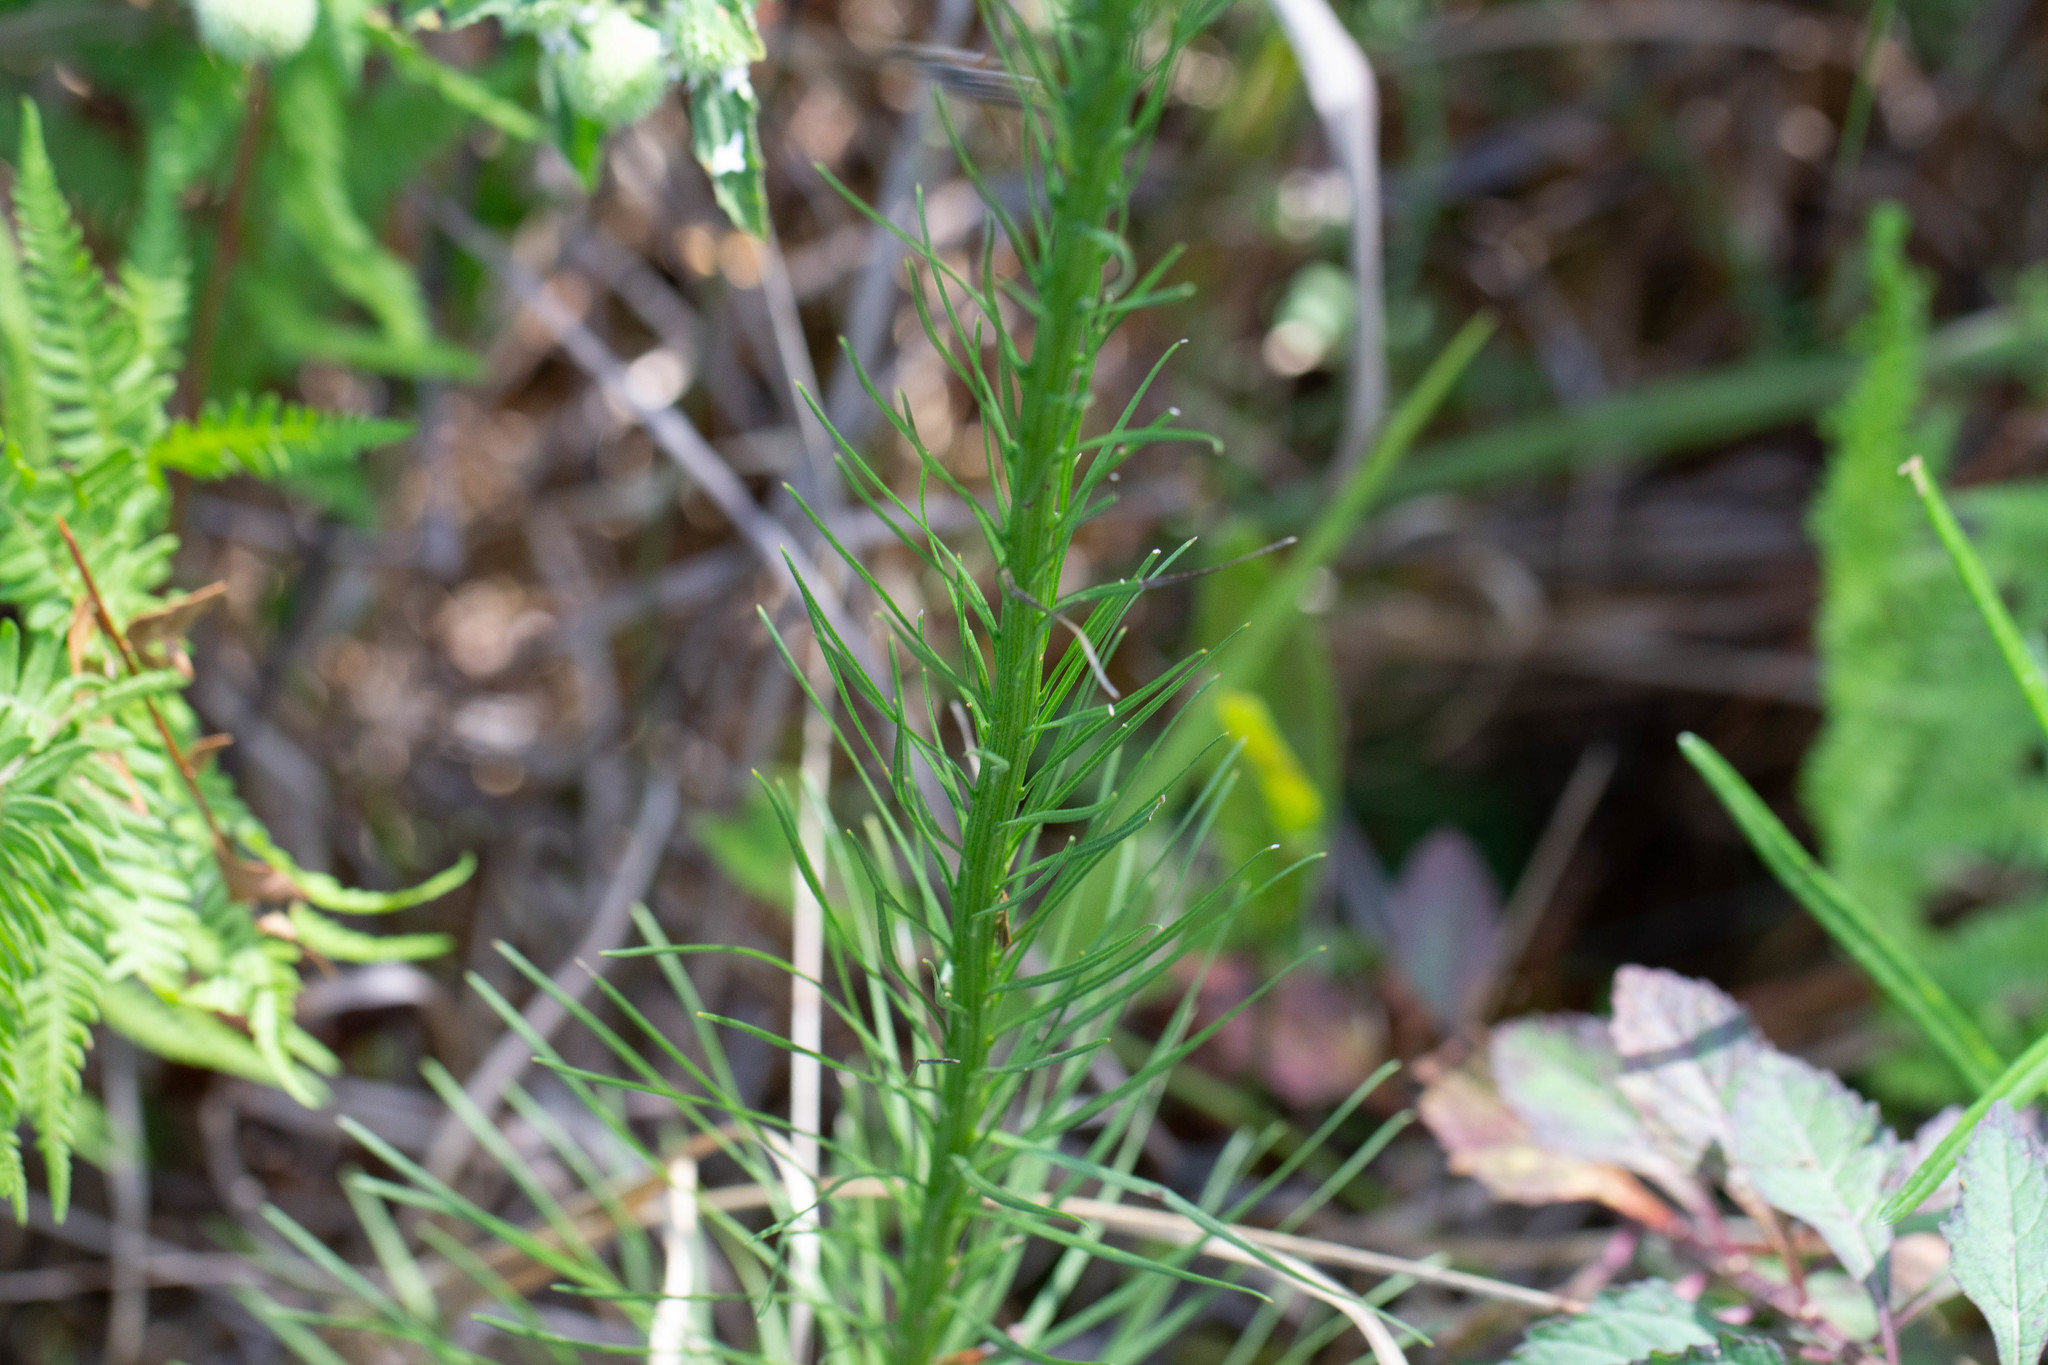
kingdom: Plantae
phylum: Tracheophyta
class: Magnoliopsida
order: Asterales
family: Asteraceae
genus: Liatris
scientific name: Liatris spicata
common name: Florist gayfeather
